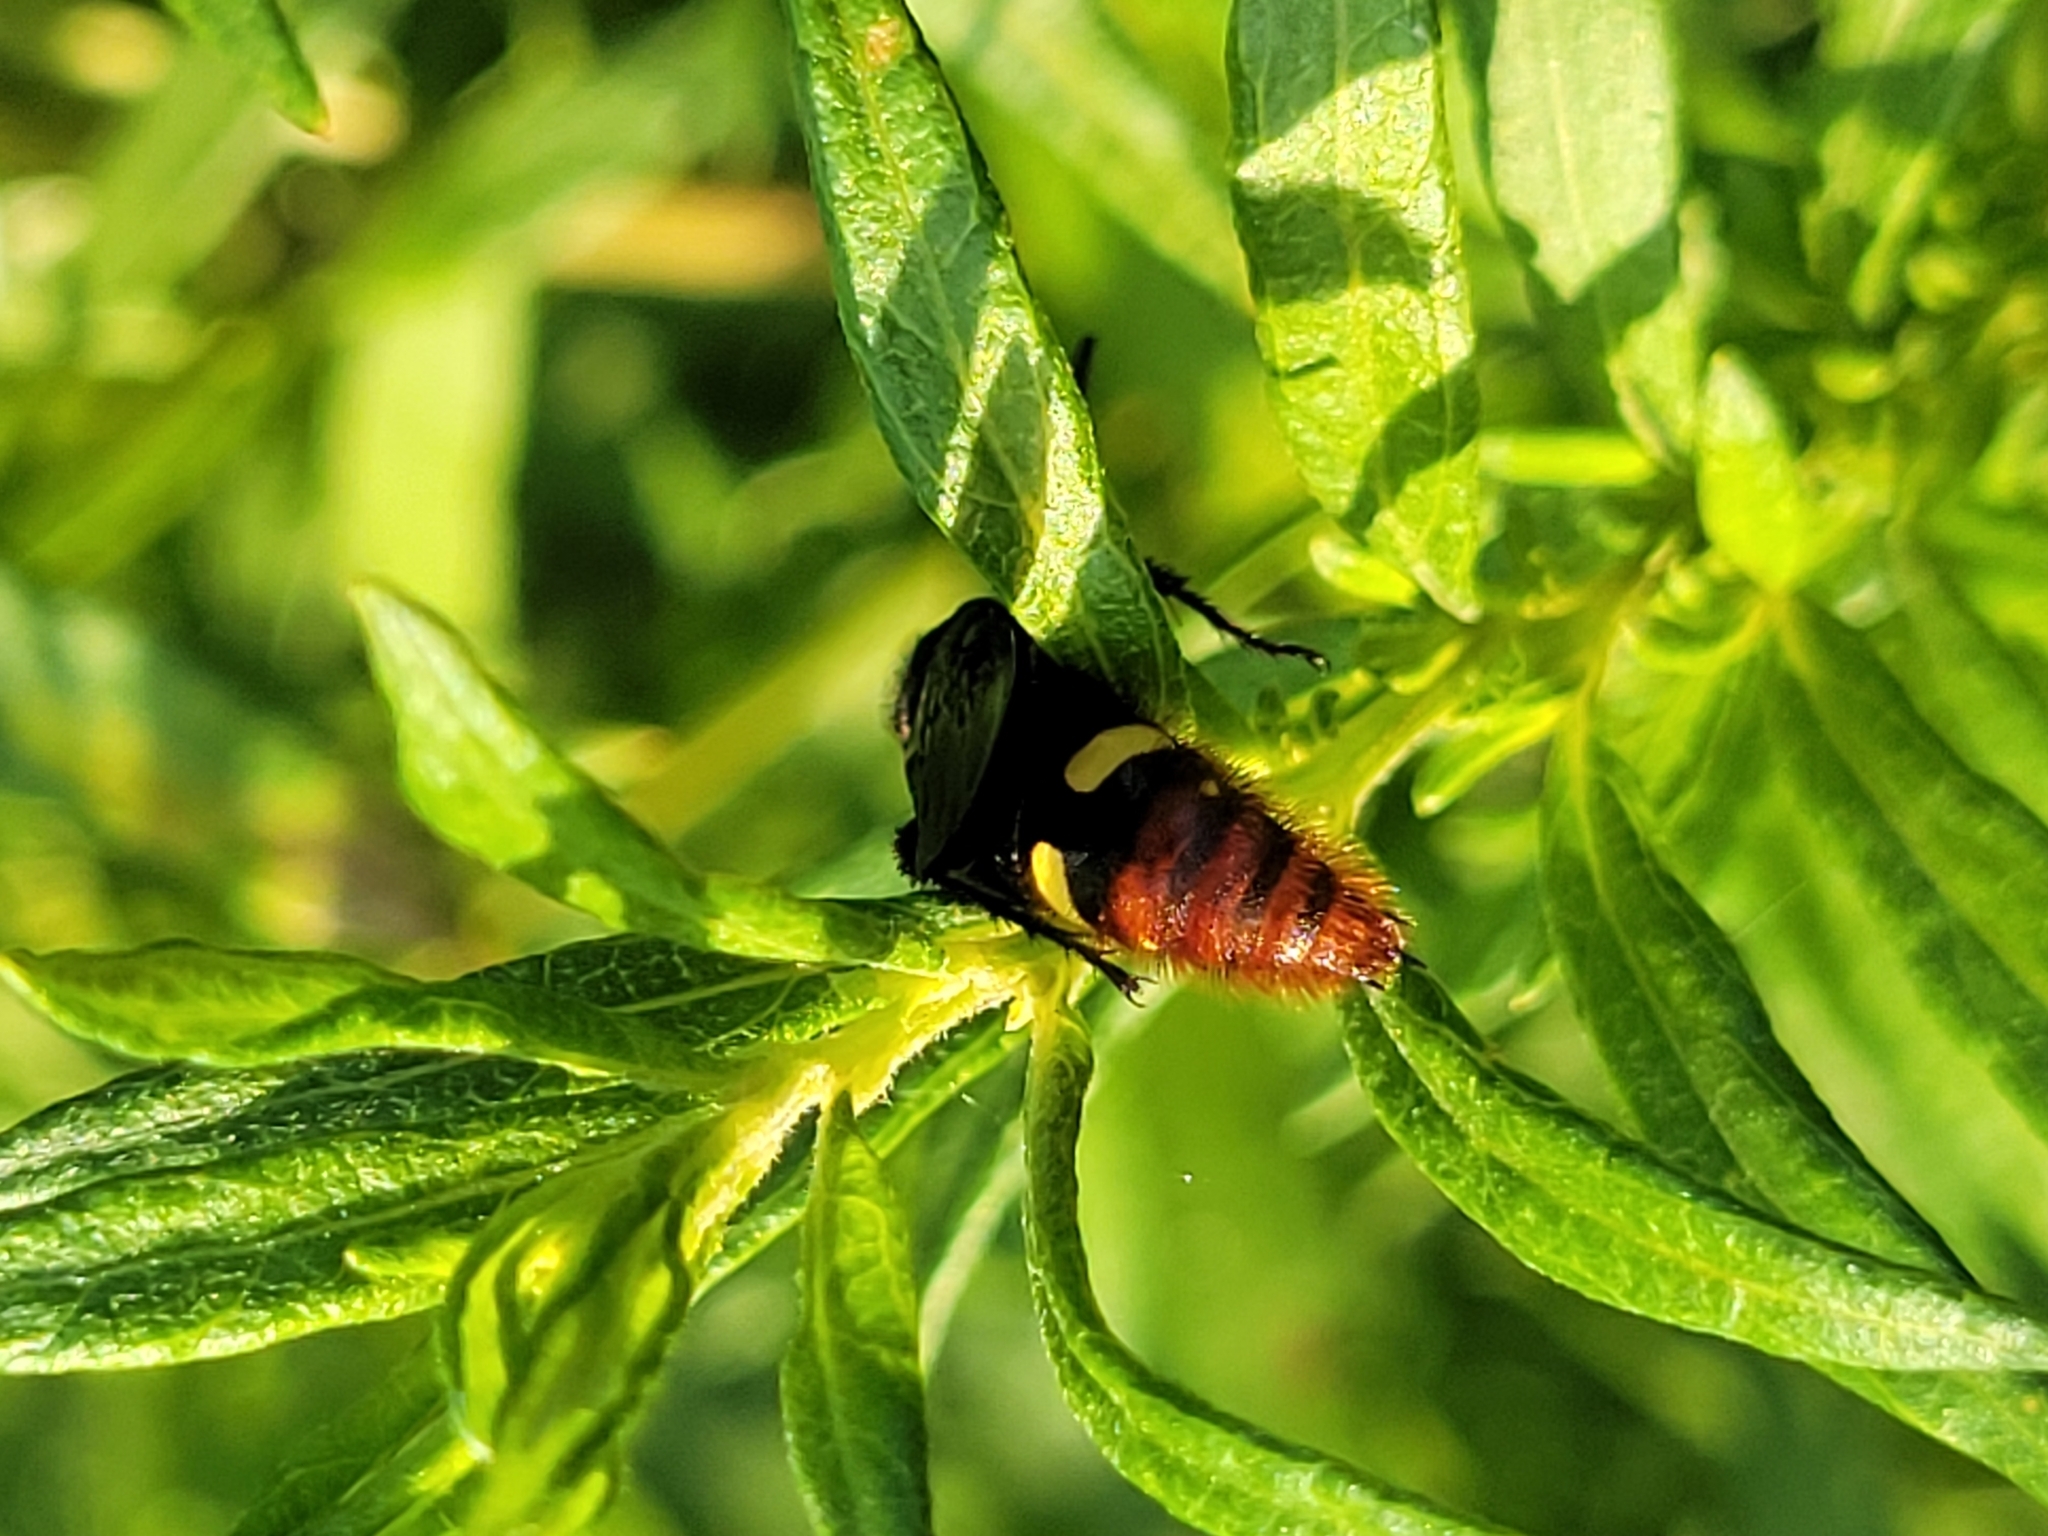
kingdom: Animalia
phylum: Arthropoda
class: Insecta
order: Hymenoptera
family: Scoliidae
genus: Scolia
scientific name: Scolia dubia
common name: Blue-winged scoliid wasp
